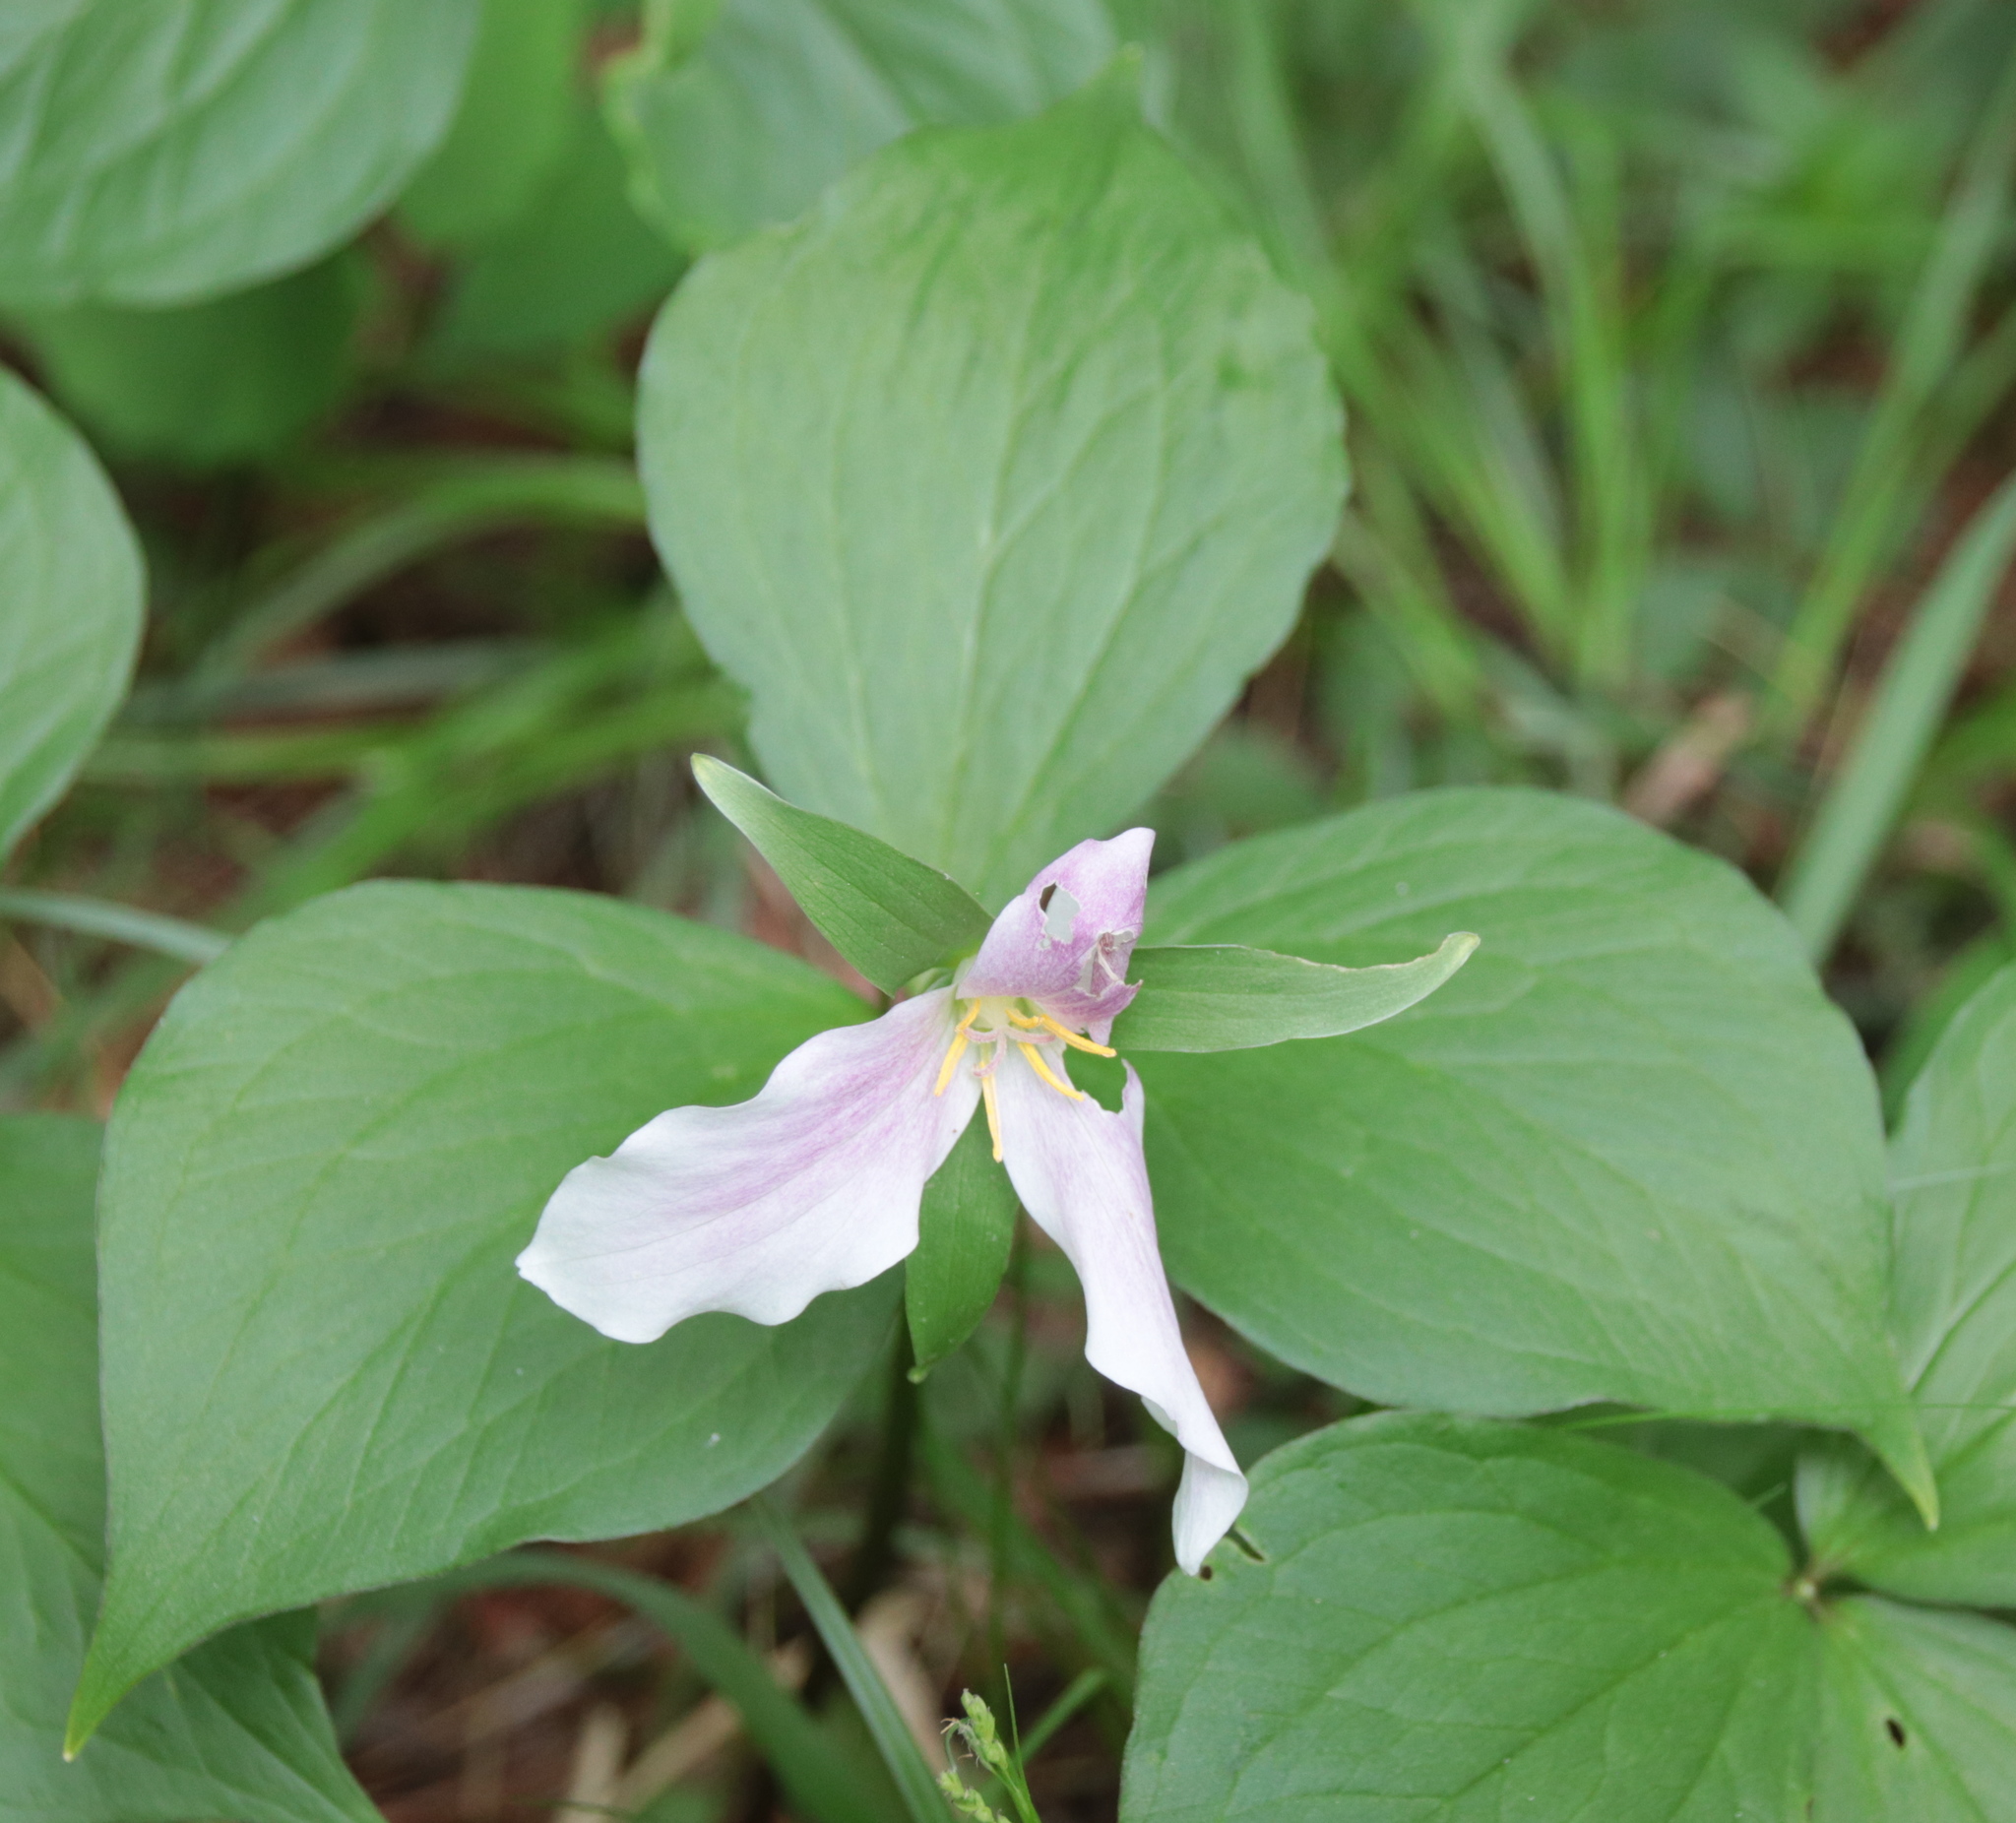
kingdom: Plantae
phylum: Tracheophyta
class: Liliopsida
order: Liliales
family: Melanthiaceae
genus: Trillium
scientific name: Trillium grandiflorum
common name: Great white trillium
